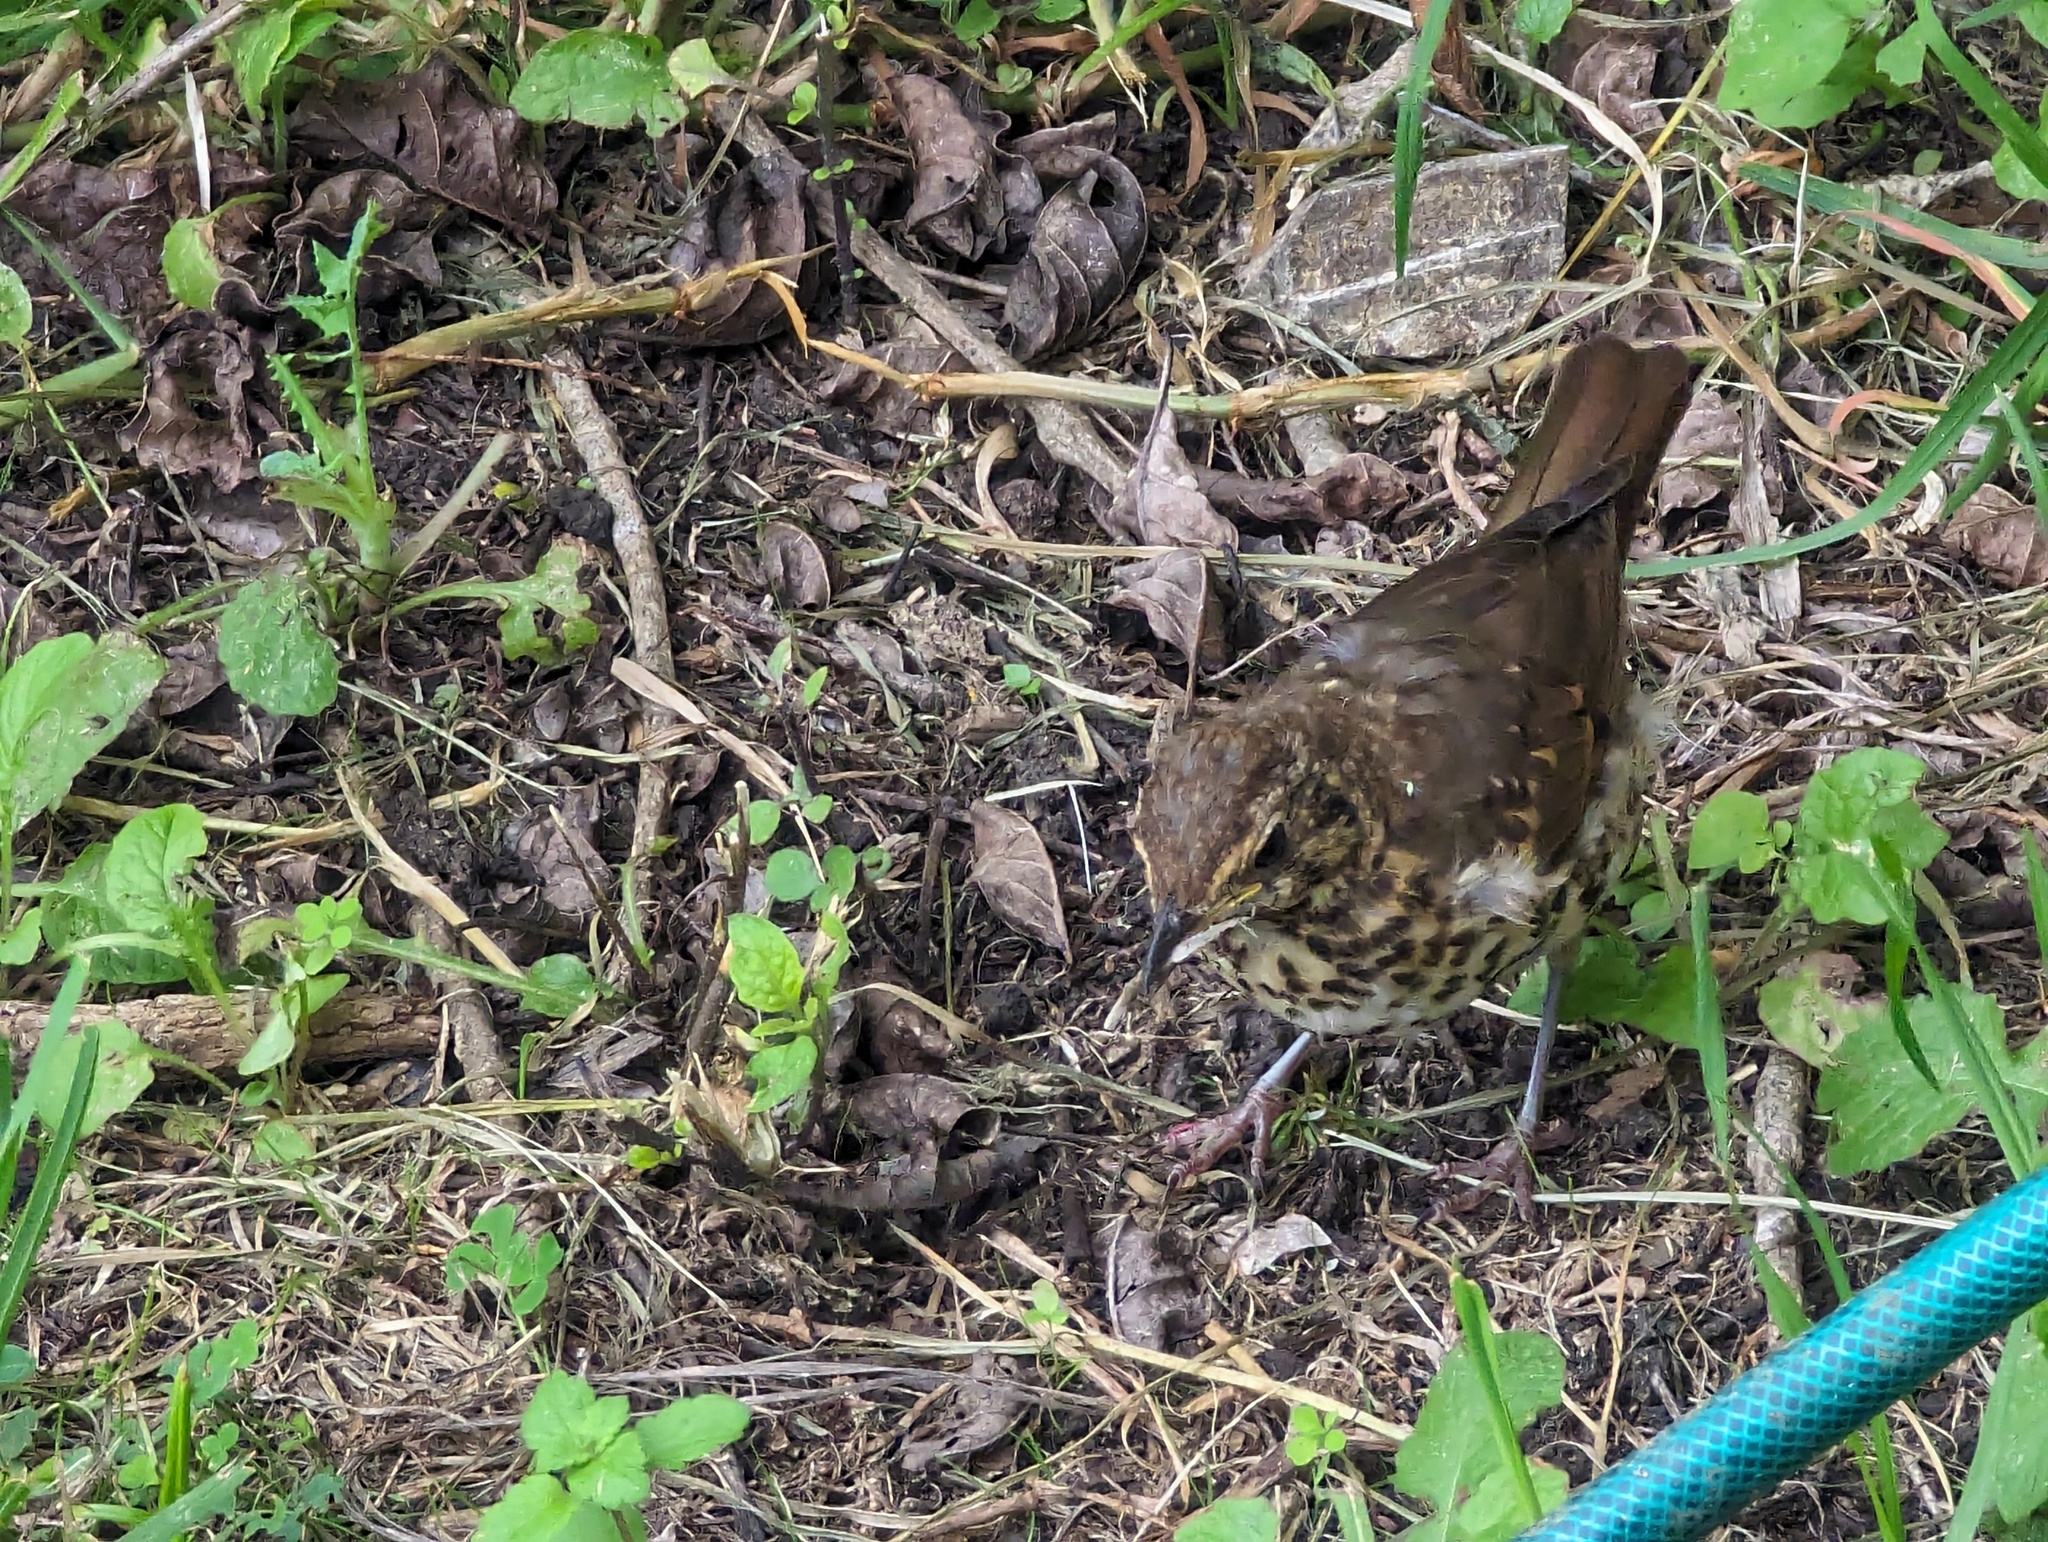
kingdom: Animalia
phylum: Chordata
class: Aves
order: Passeriformes
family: Turdidae
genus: Turdus
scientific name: Turdus philomelos
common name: Song thrush
